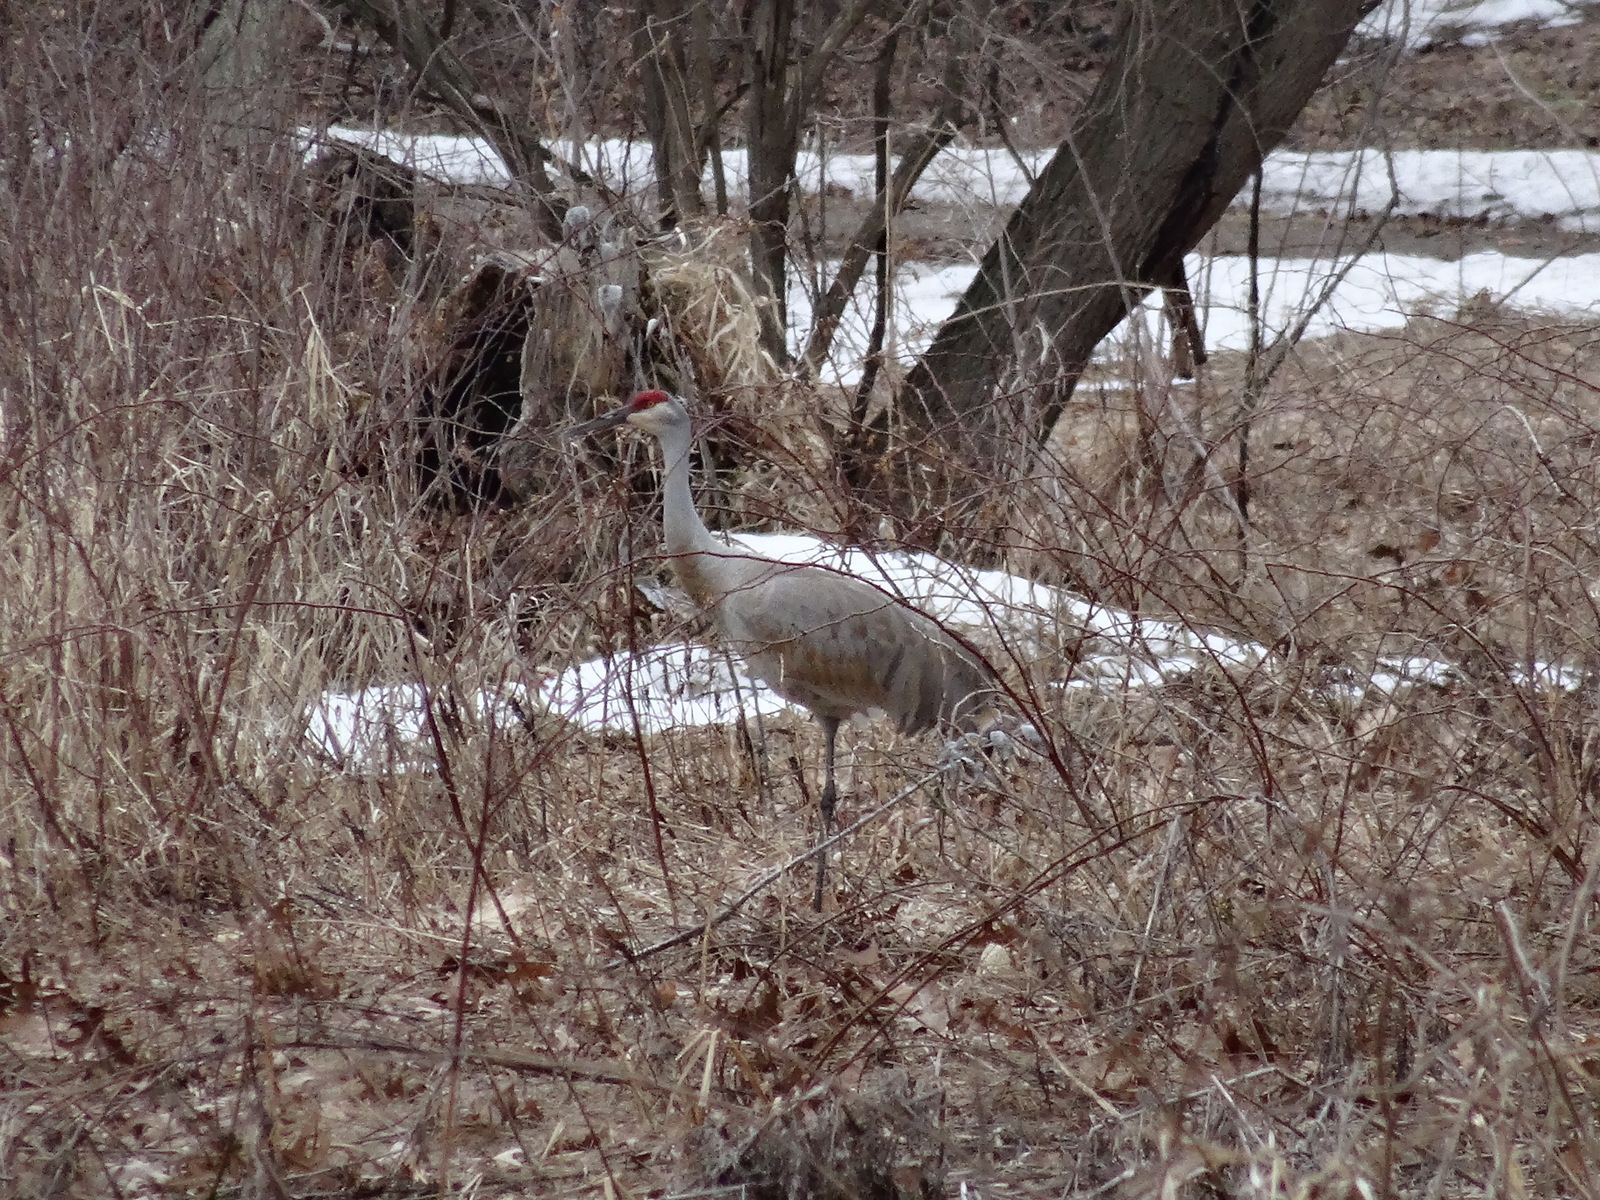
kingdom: Animalia
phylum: Chordata
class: Aves
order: Gruiformes
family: Gruidae
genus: Grus
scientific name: Grus canadensis
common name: Sandhill crane
